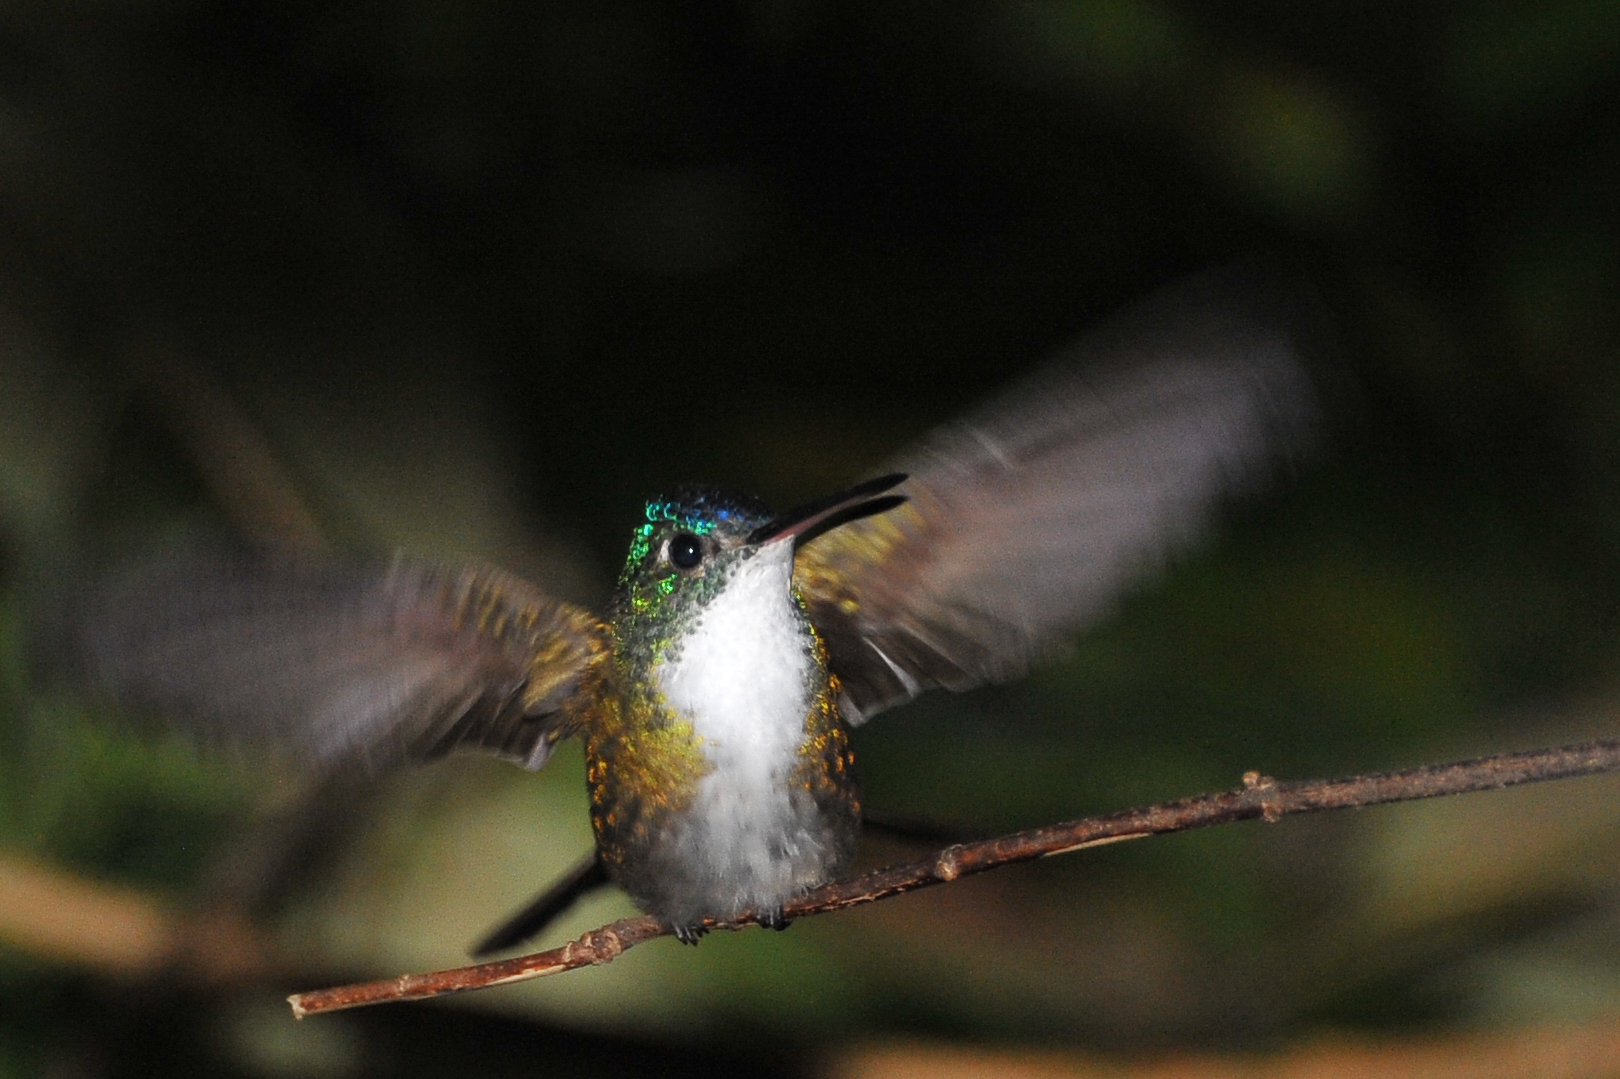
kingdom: Animalia
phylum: Chordata
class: Aves
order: Apodiformes
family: Trochilidae
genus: Saucerottia
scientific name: Saucerottia cyanocephala
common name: Azure-crowned hummingbird
